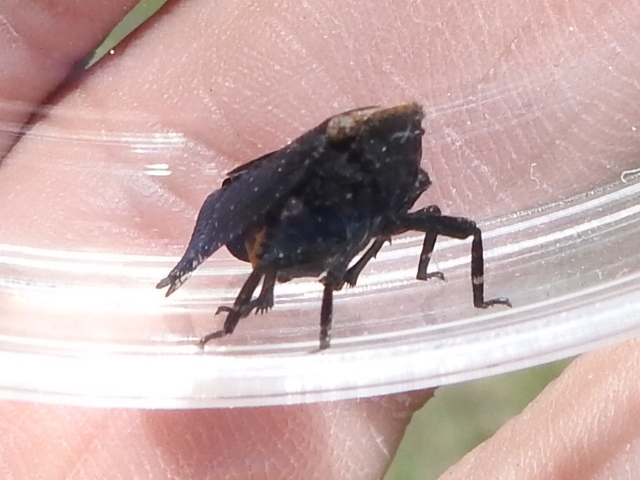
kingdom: Animalia
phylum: Arthropoda
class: Insecta
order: Hemiptera
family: Fulgoridae
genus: Crepusia
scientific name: Crepusia fuliginosa
